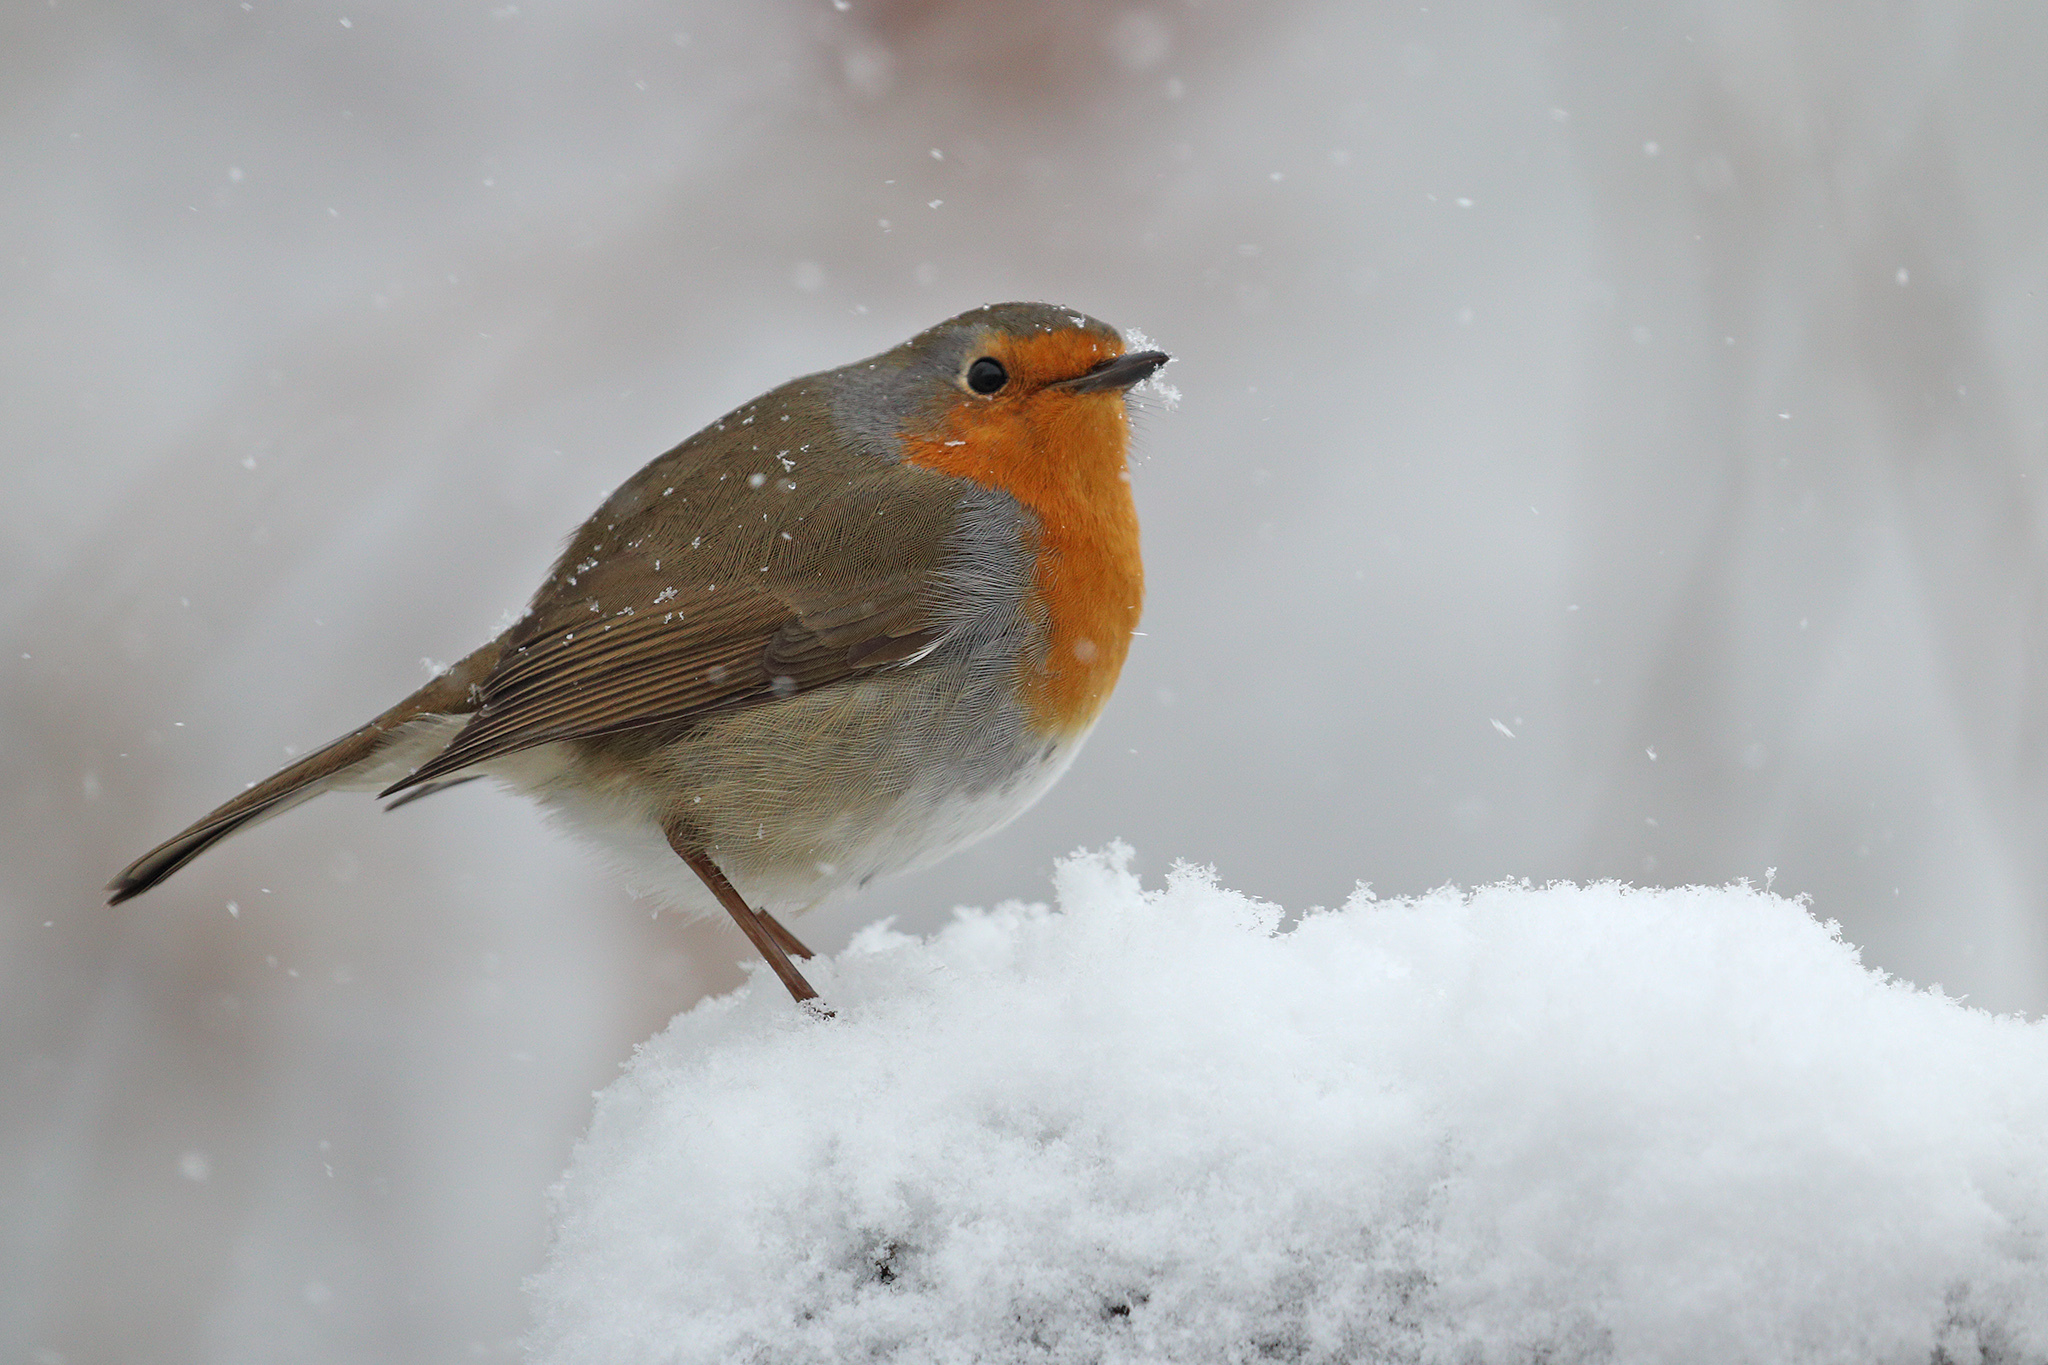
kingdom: Animalia
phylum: Chordata
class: Aves
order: Passeriformes
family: Muscicapidae
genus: Erithacus
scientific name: Erithacus rubecula
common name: European robin
